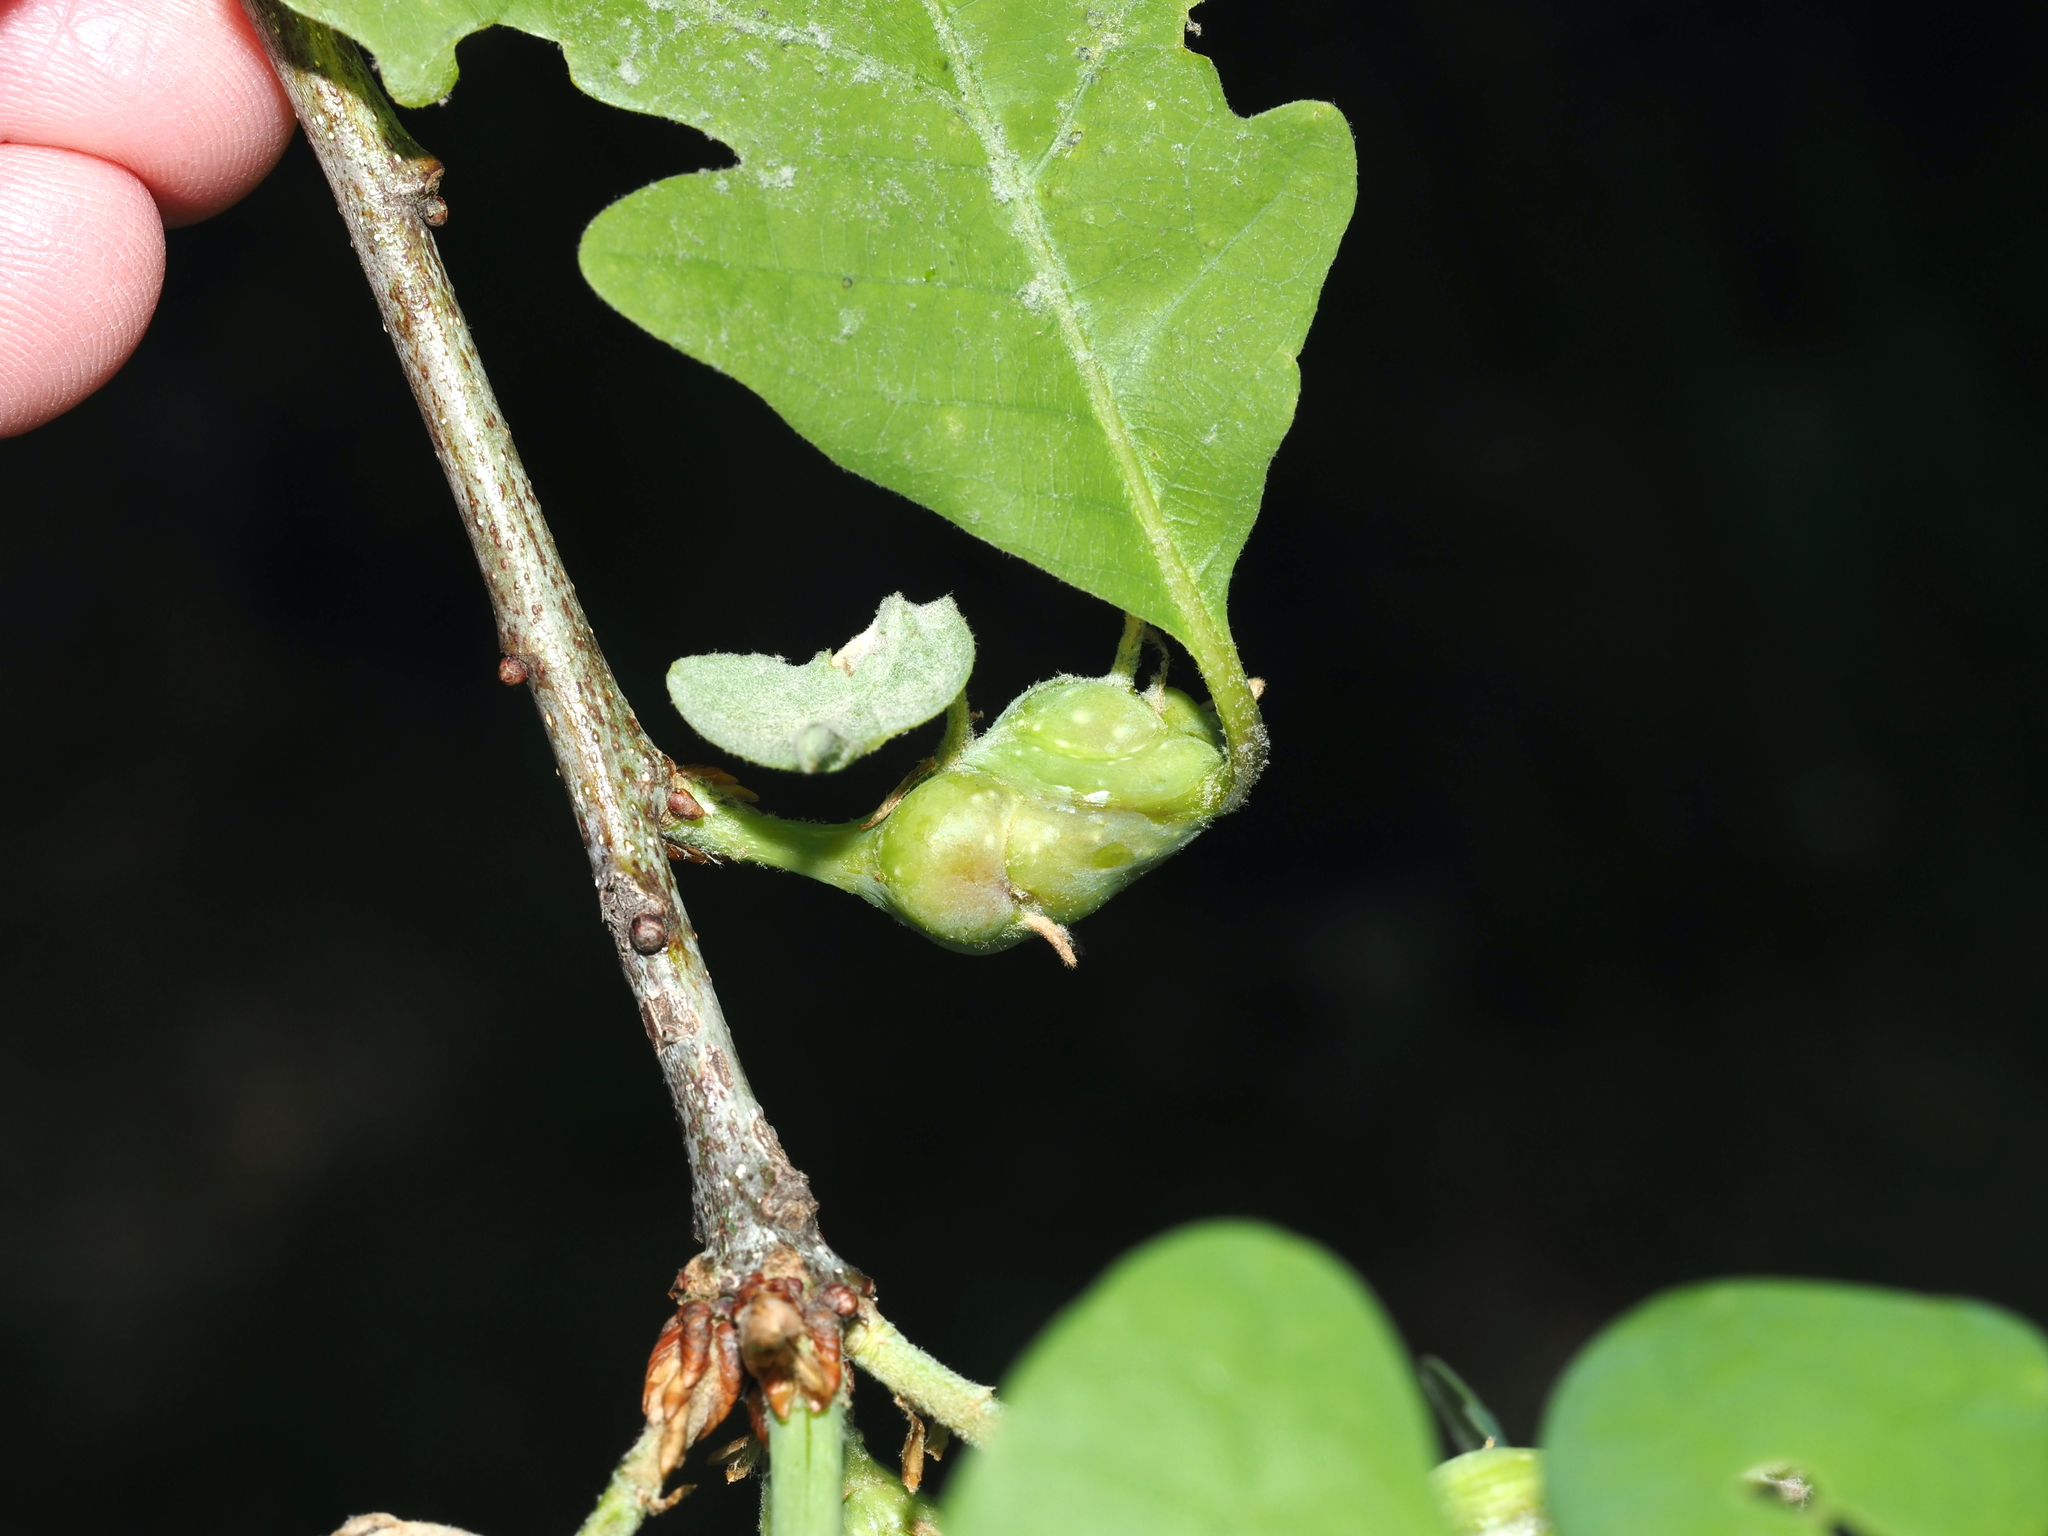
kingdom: Animalia
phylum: Arthropoda
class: Insecta
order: Hymenoptera
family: Cynipidae
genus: Neuroterus
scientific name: Neuroterus quercusbaccarum
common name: Common spangle gall
